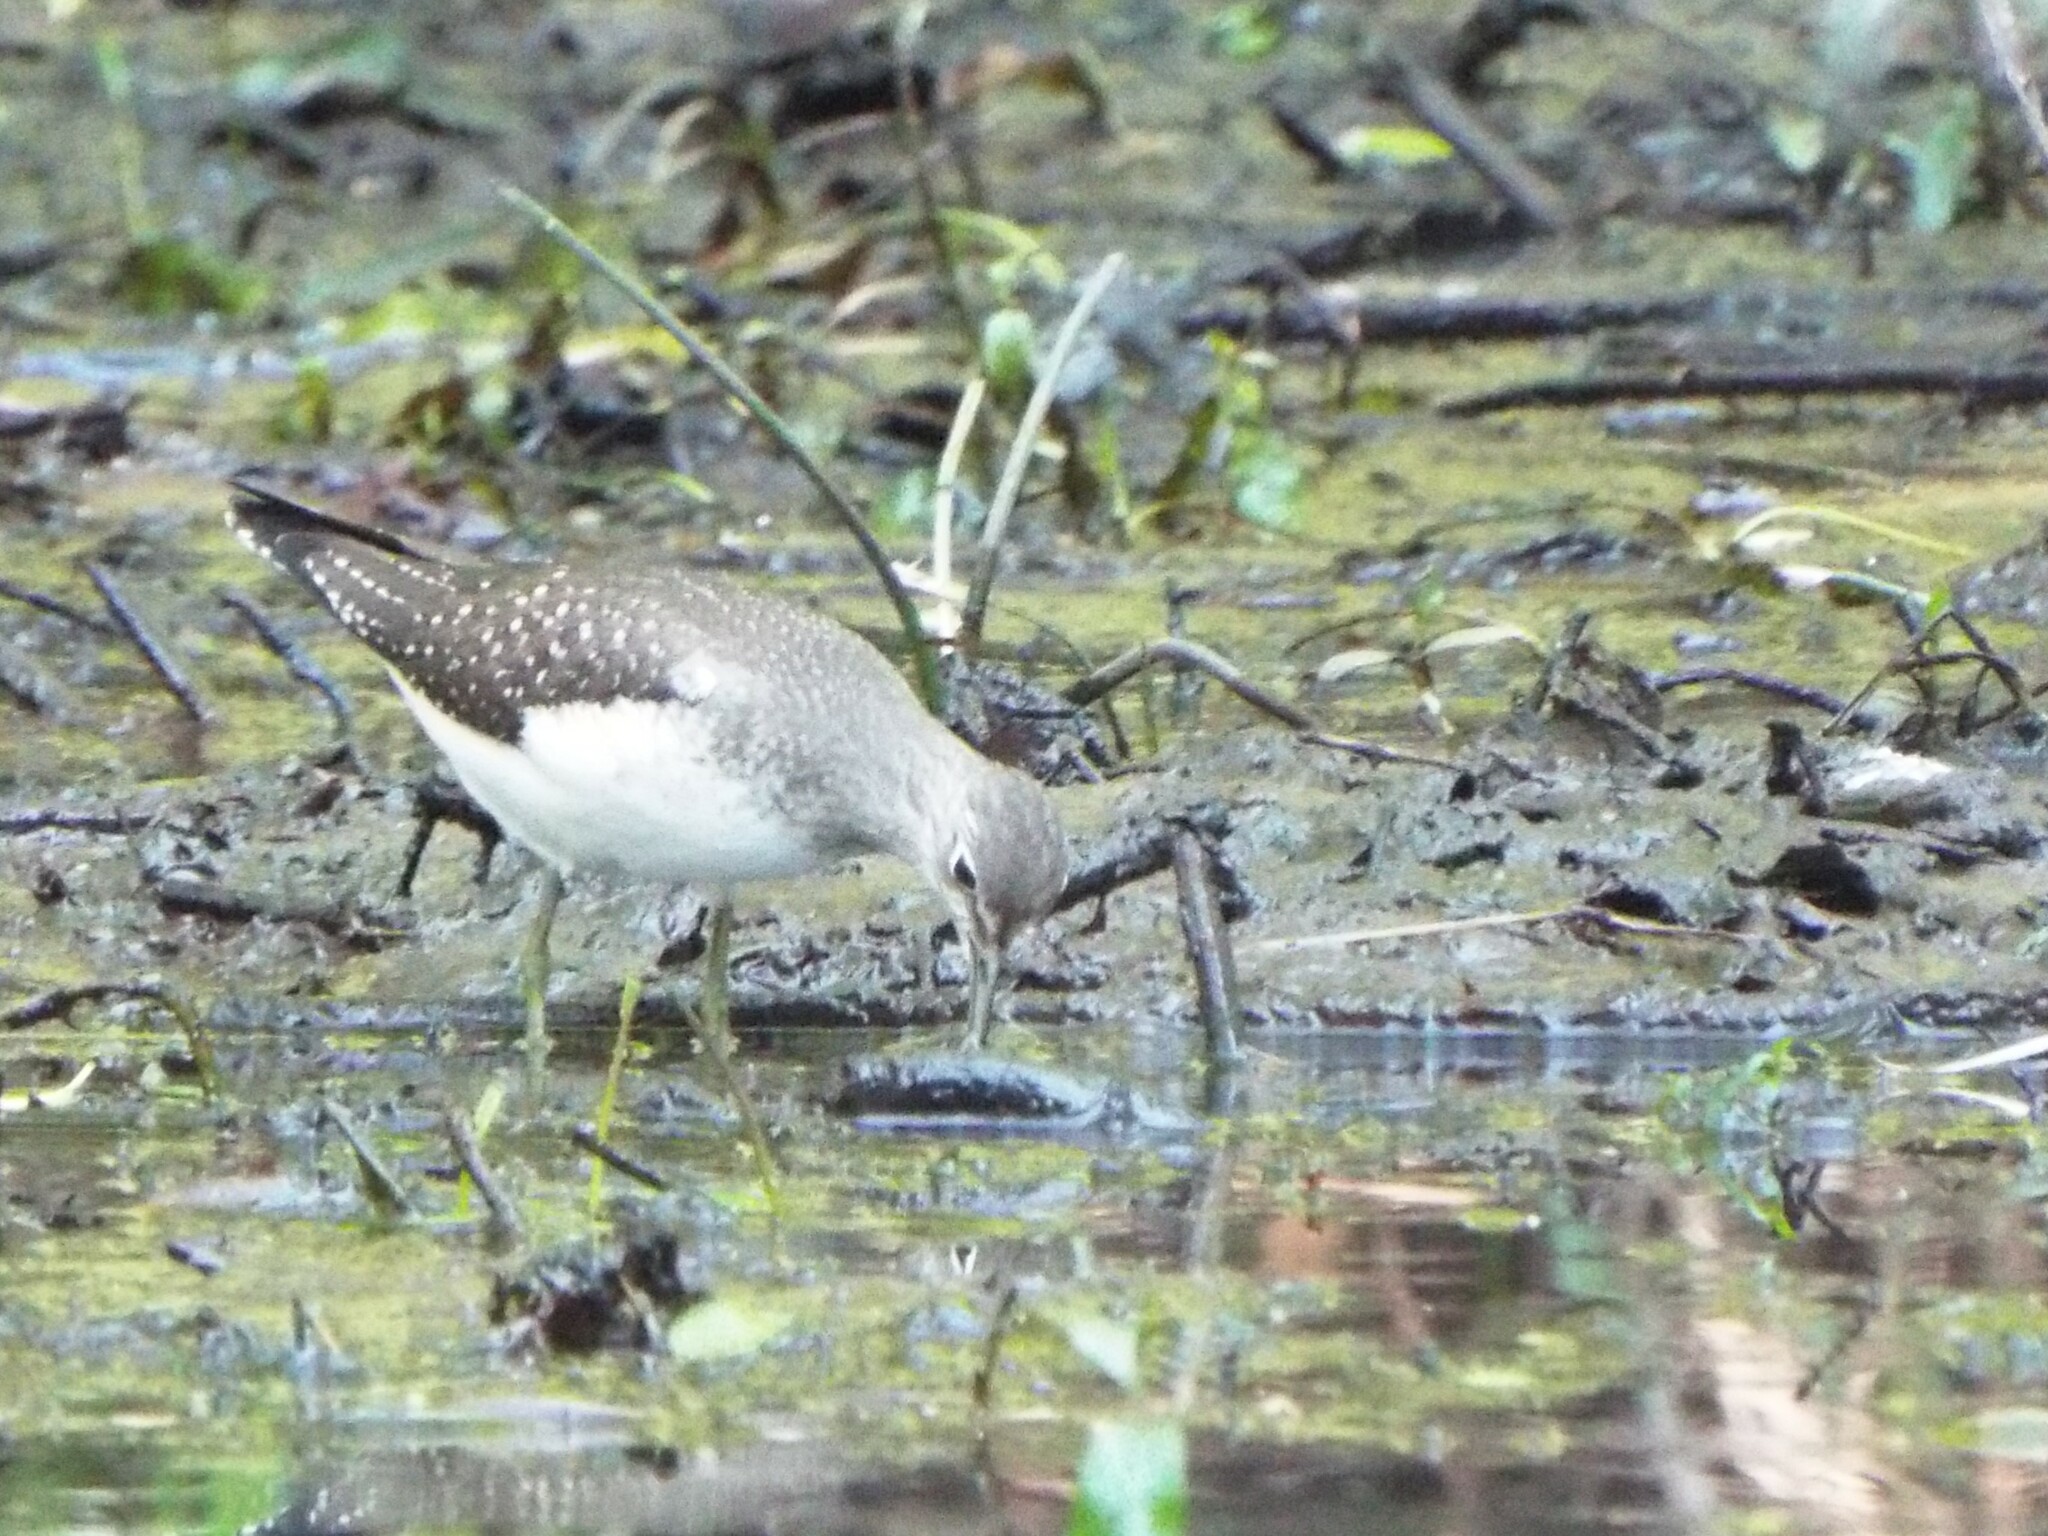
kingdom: Animalia
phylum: Chordata
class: Aves
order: Charadriiformes
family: Scolopacidae
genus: Tringa
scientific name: Tringa solitaria
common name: Solitary sandpiper
